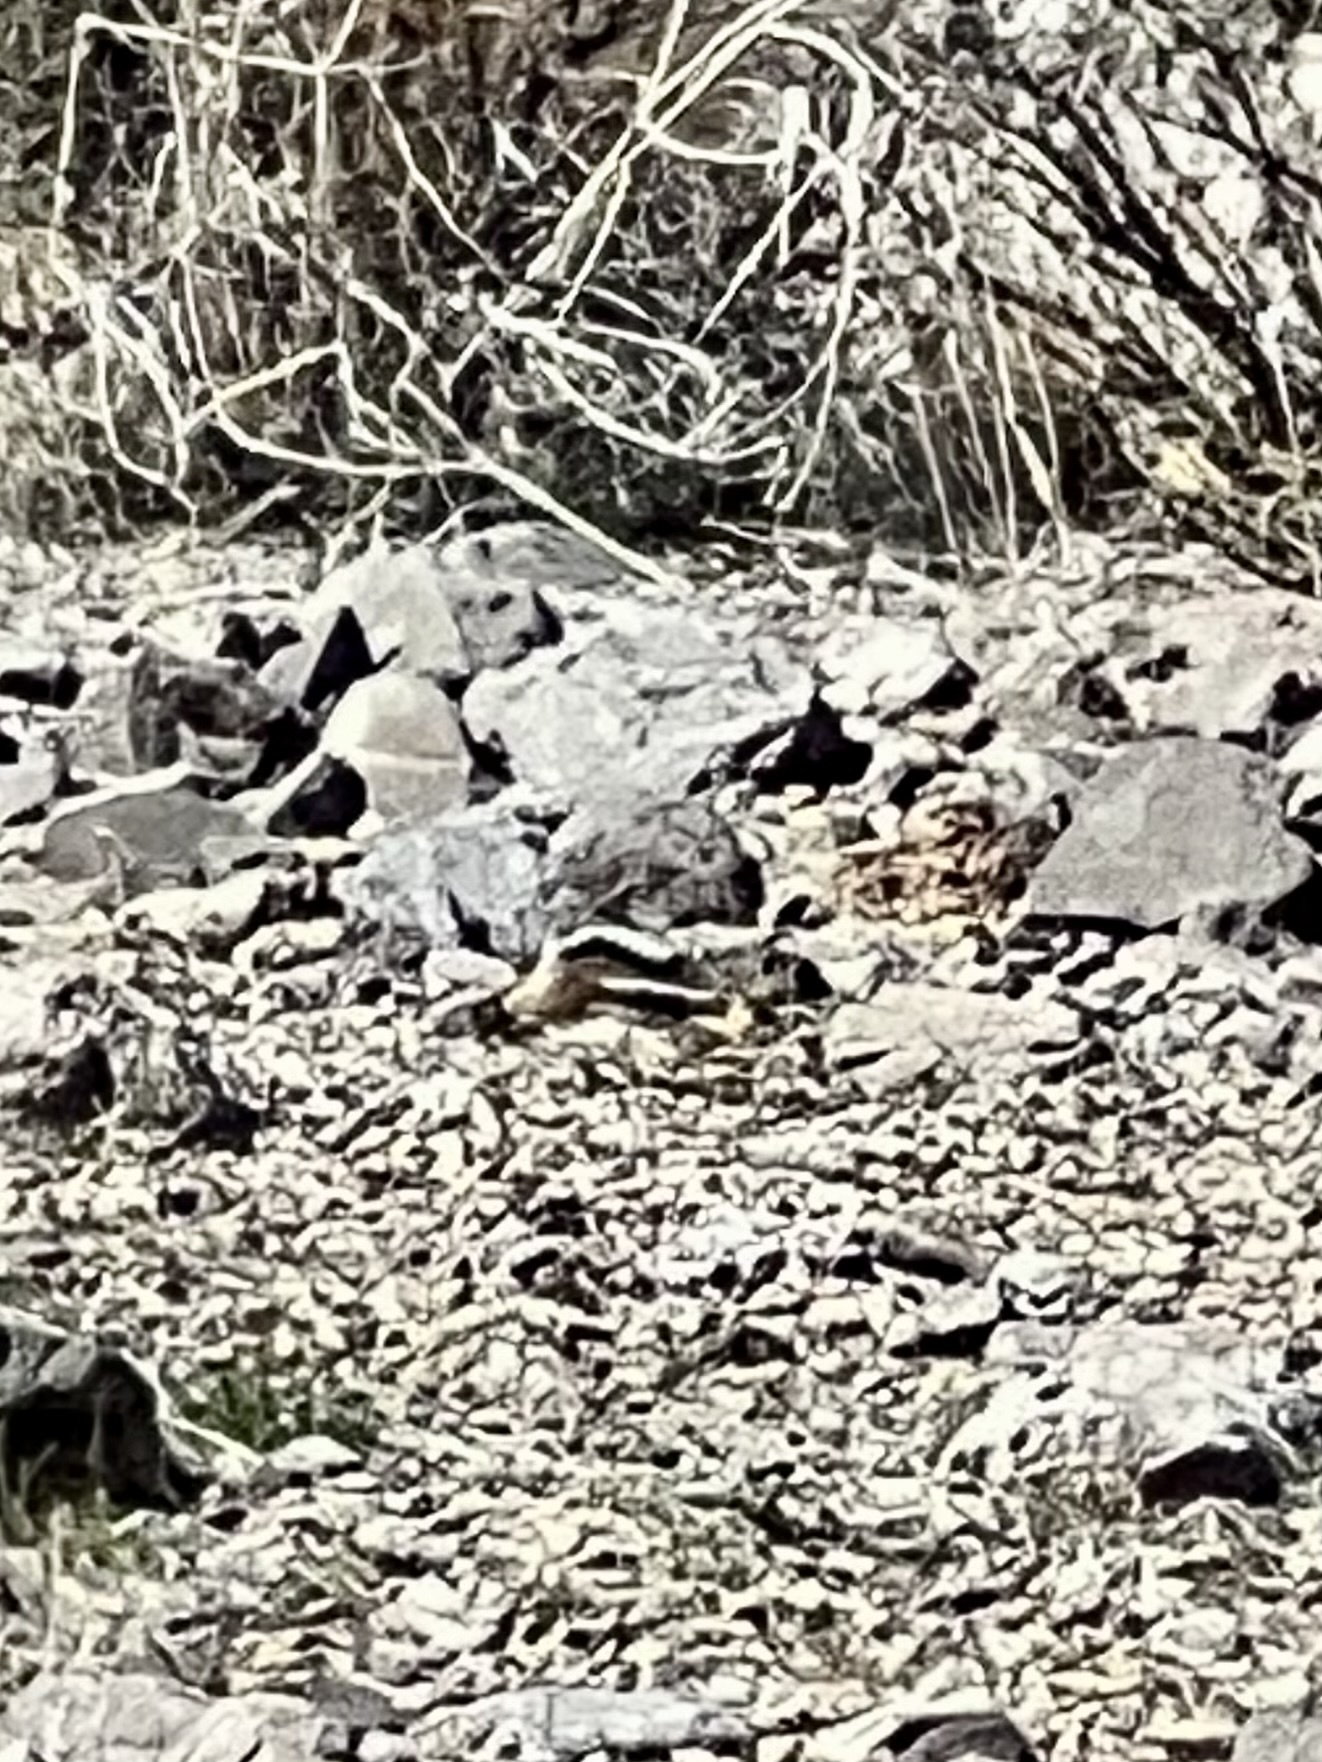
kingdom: Animalia
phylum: Chordata
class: Mammalia
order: Rodentia
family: Sciuridae
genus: Ammospermophilus
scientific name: Ammospermophilus leucurus
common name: White-tailed antelope squirrel
